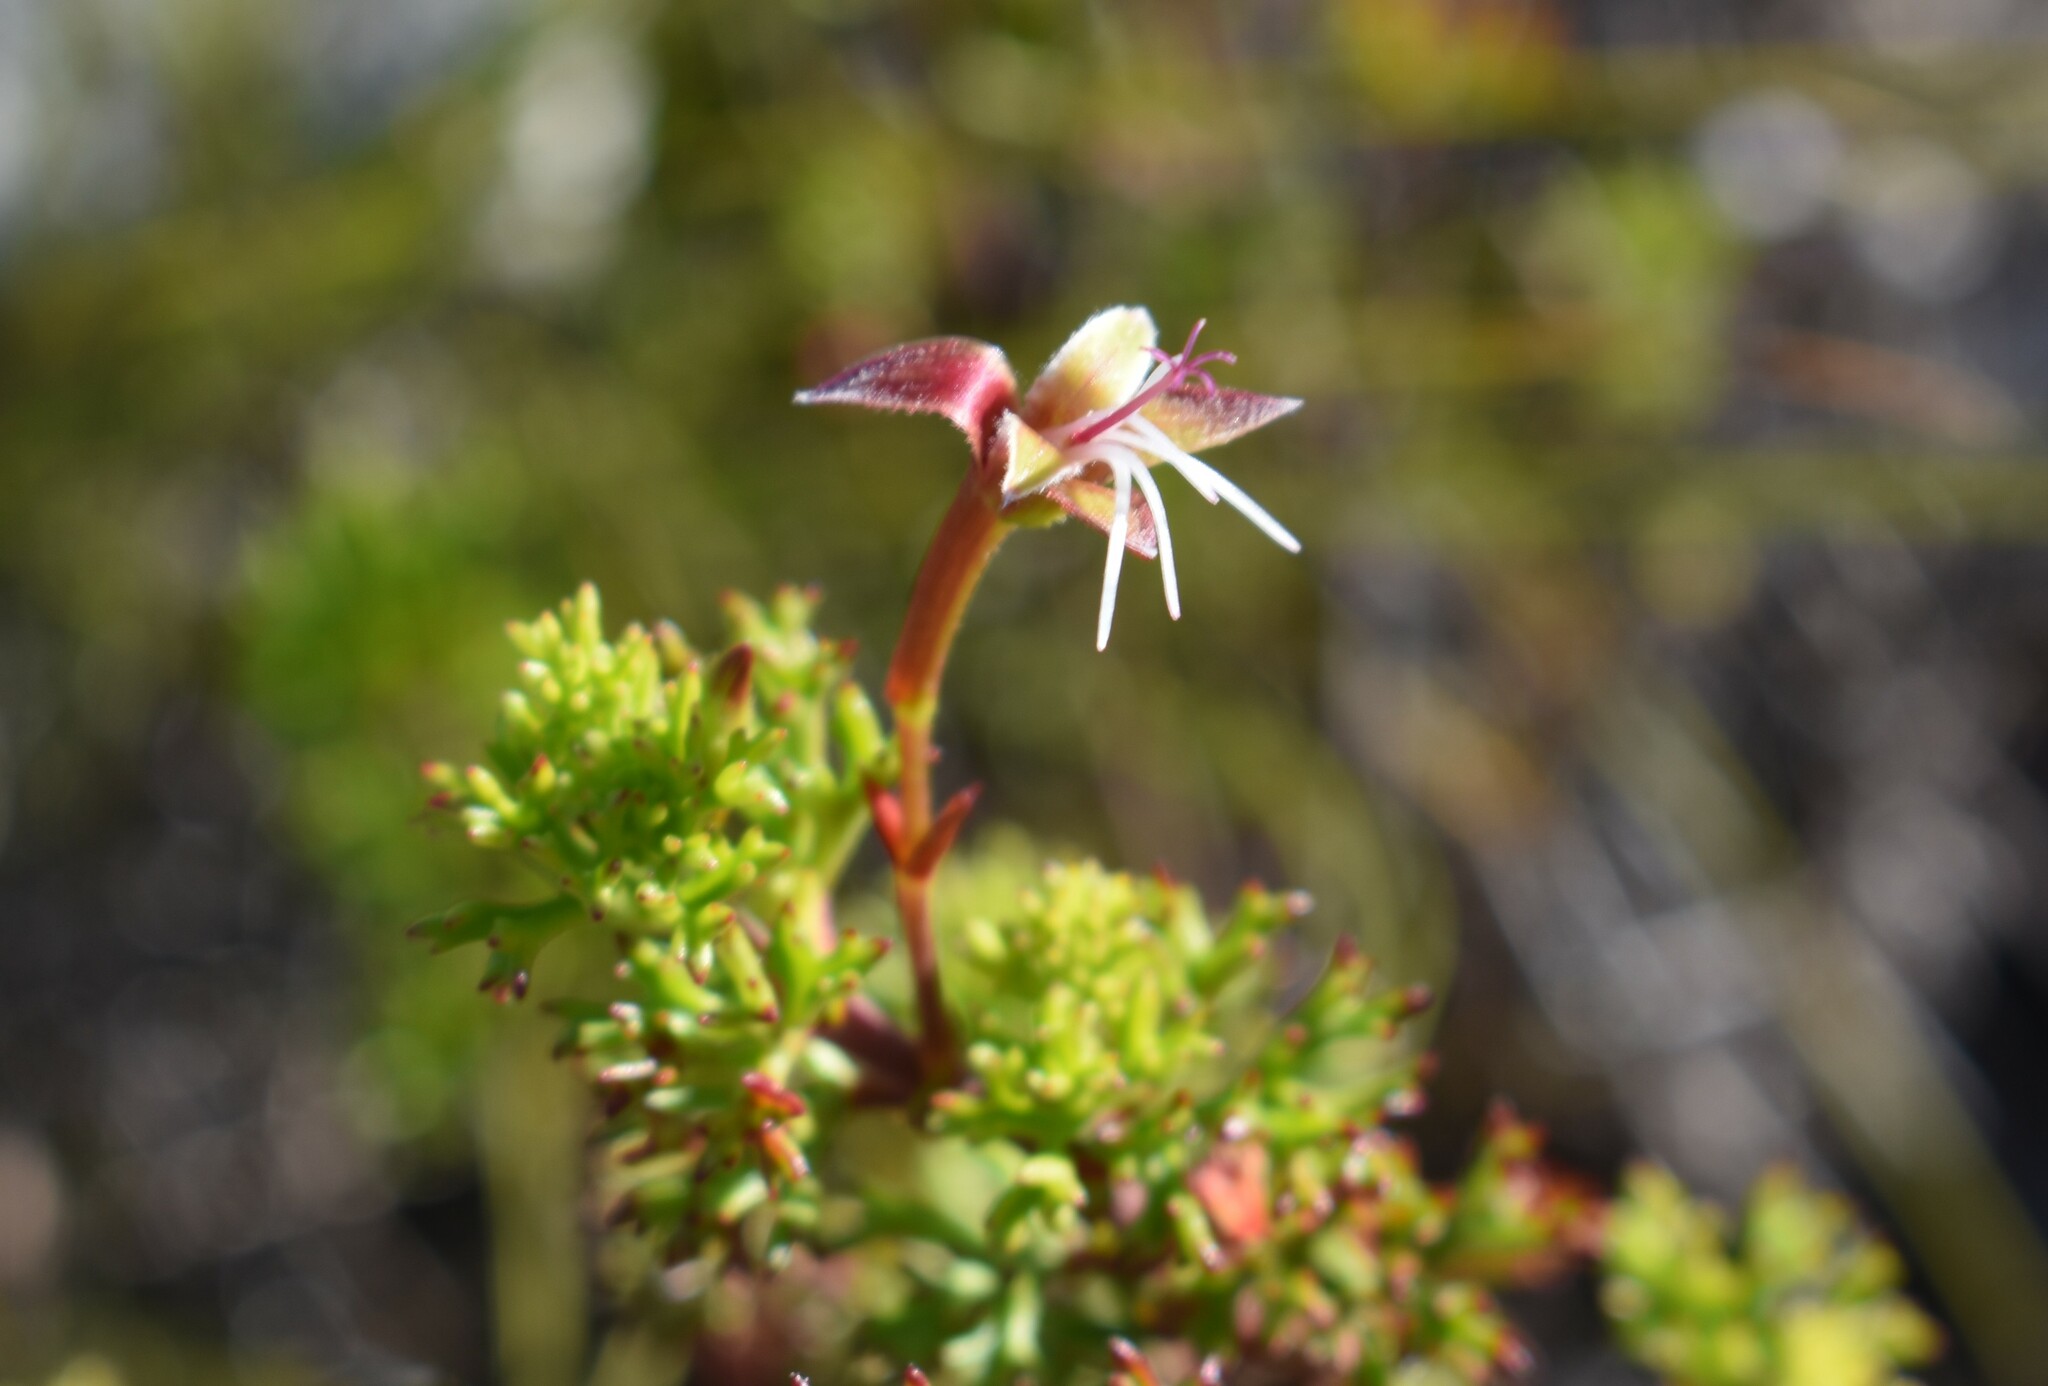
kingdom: Plantae
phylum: Tracheophyta
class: Magnoliopsida
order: Geraniales
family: Geraniaceae
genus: Pelargonium
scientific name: Pelargonium fruticosum
